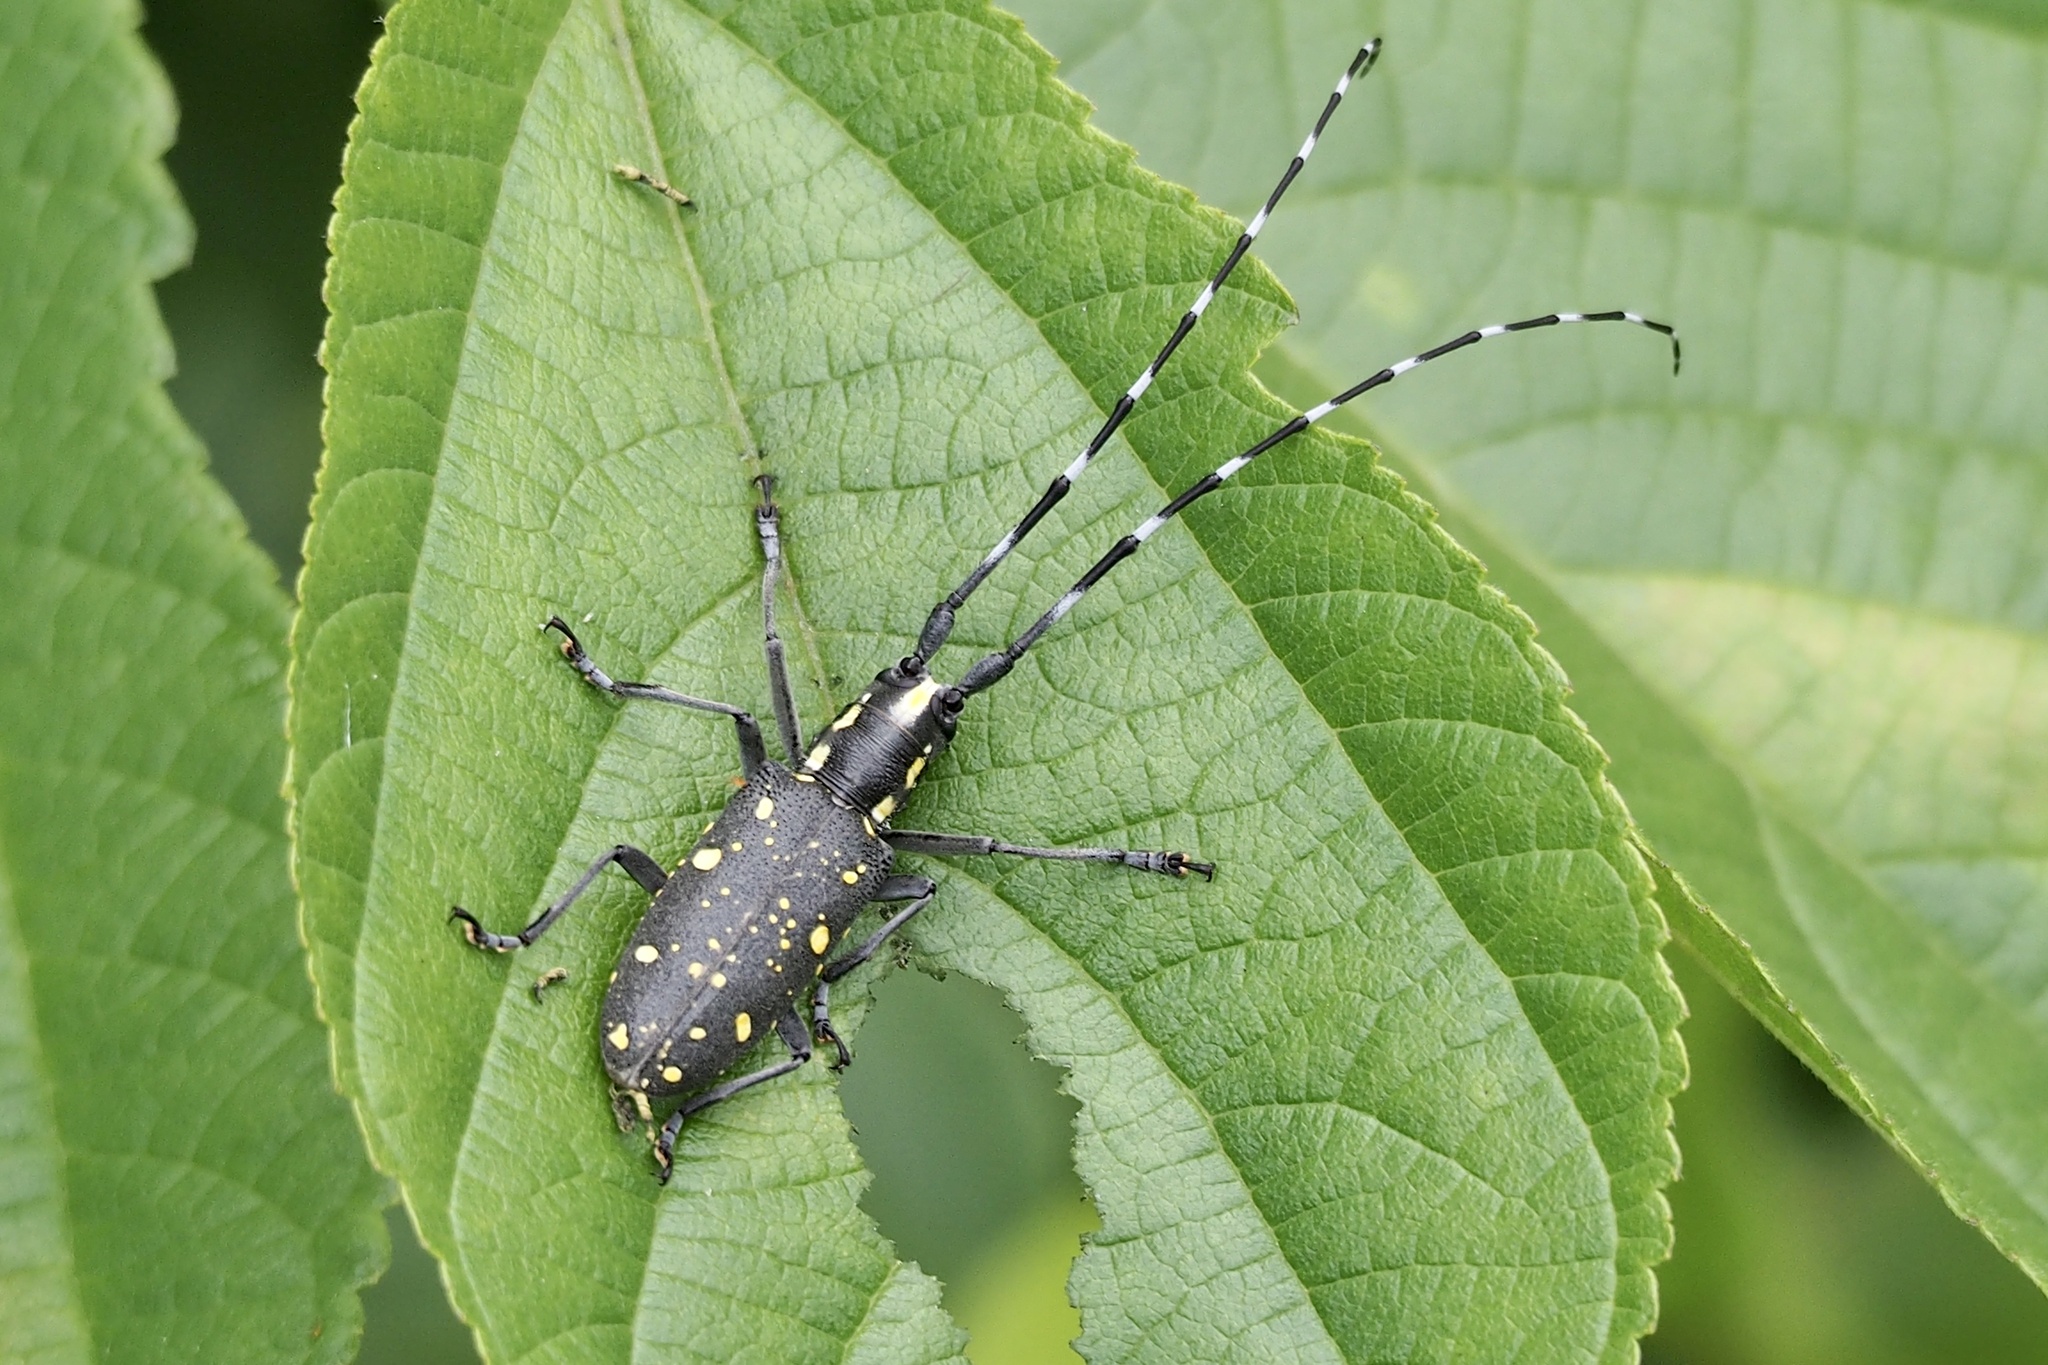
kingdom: Animalia
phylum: Arthropoda
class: Insecta
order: Coleoptera
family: Cerambycidae
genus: Psacothea
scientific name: Psacothea hilaris
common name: Yellow-spotted longicorn beetle
